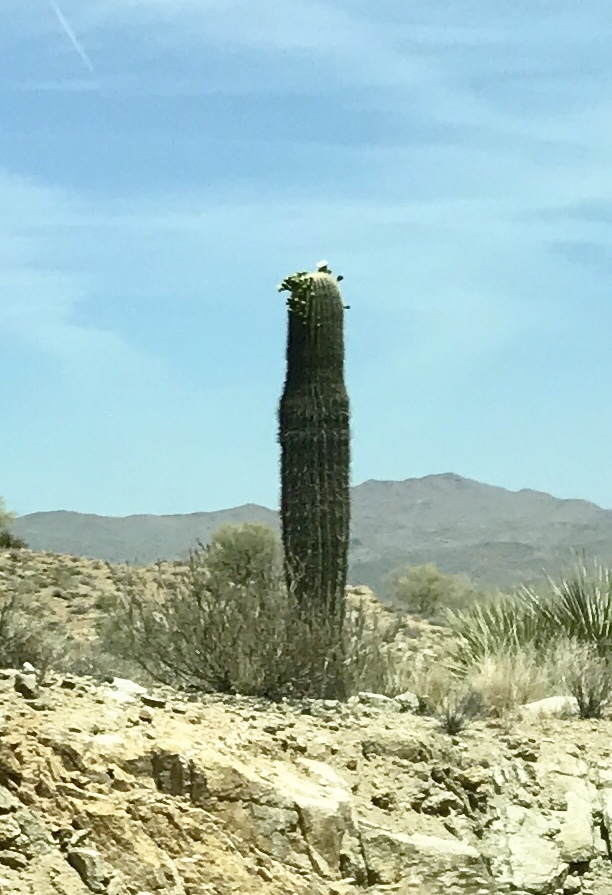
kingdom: Plantae
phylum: Tracheophyta
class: Magnoliopsida
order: Caryophyllales
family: Cactaceae
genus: Carnegiea
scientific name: Carnegiea gigantea
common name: Saguaro
